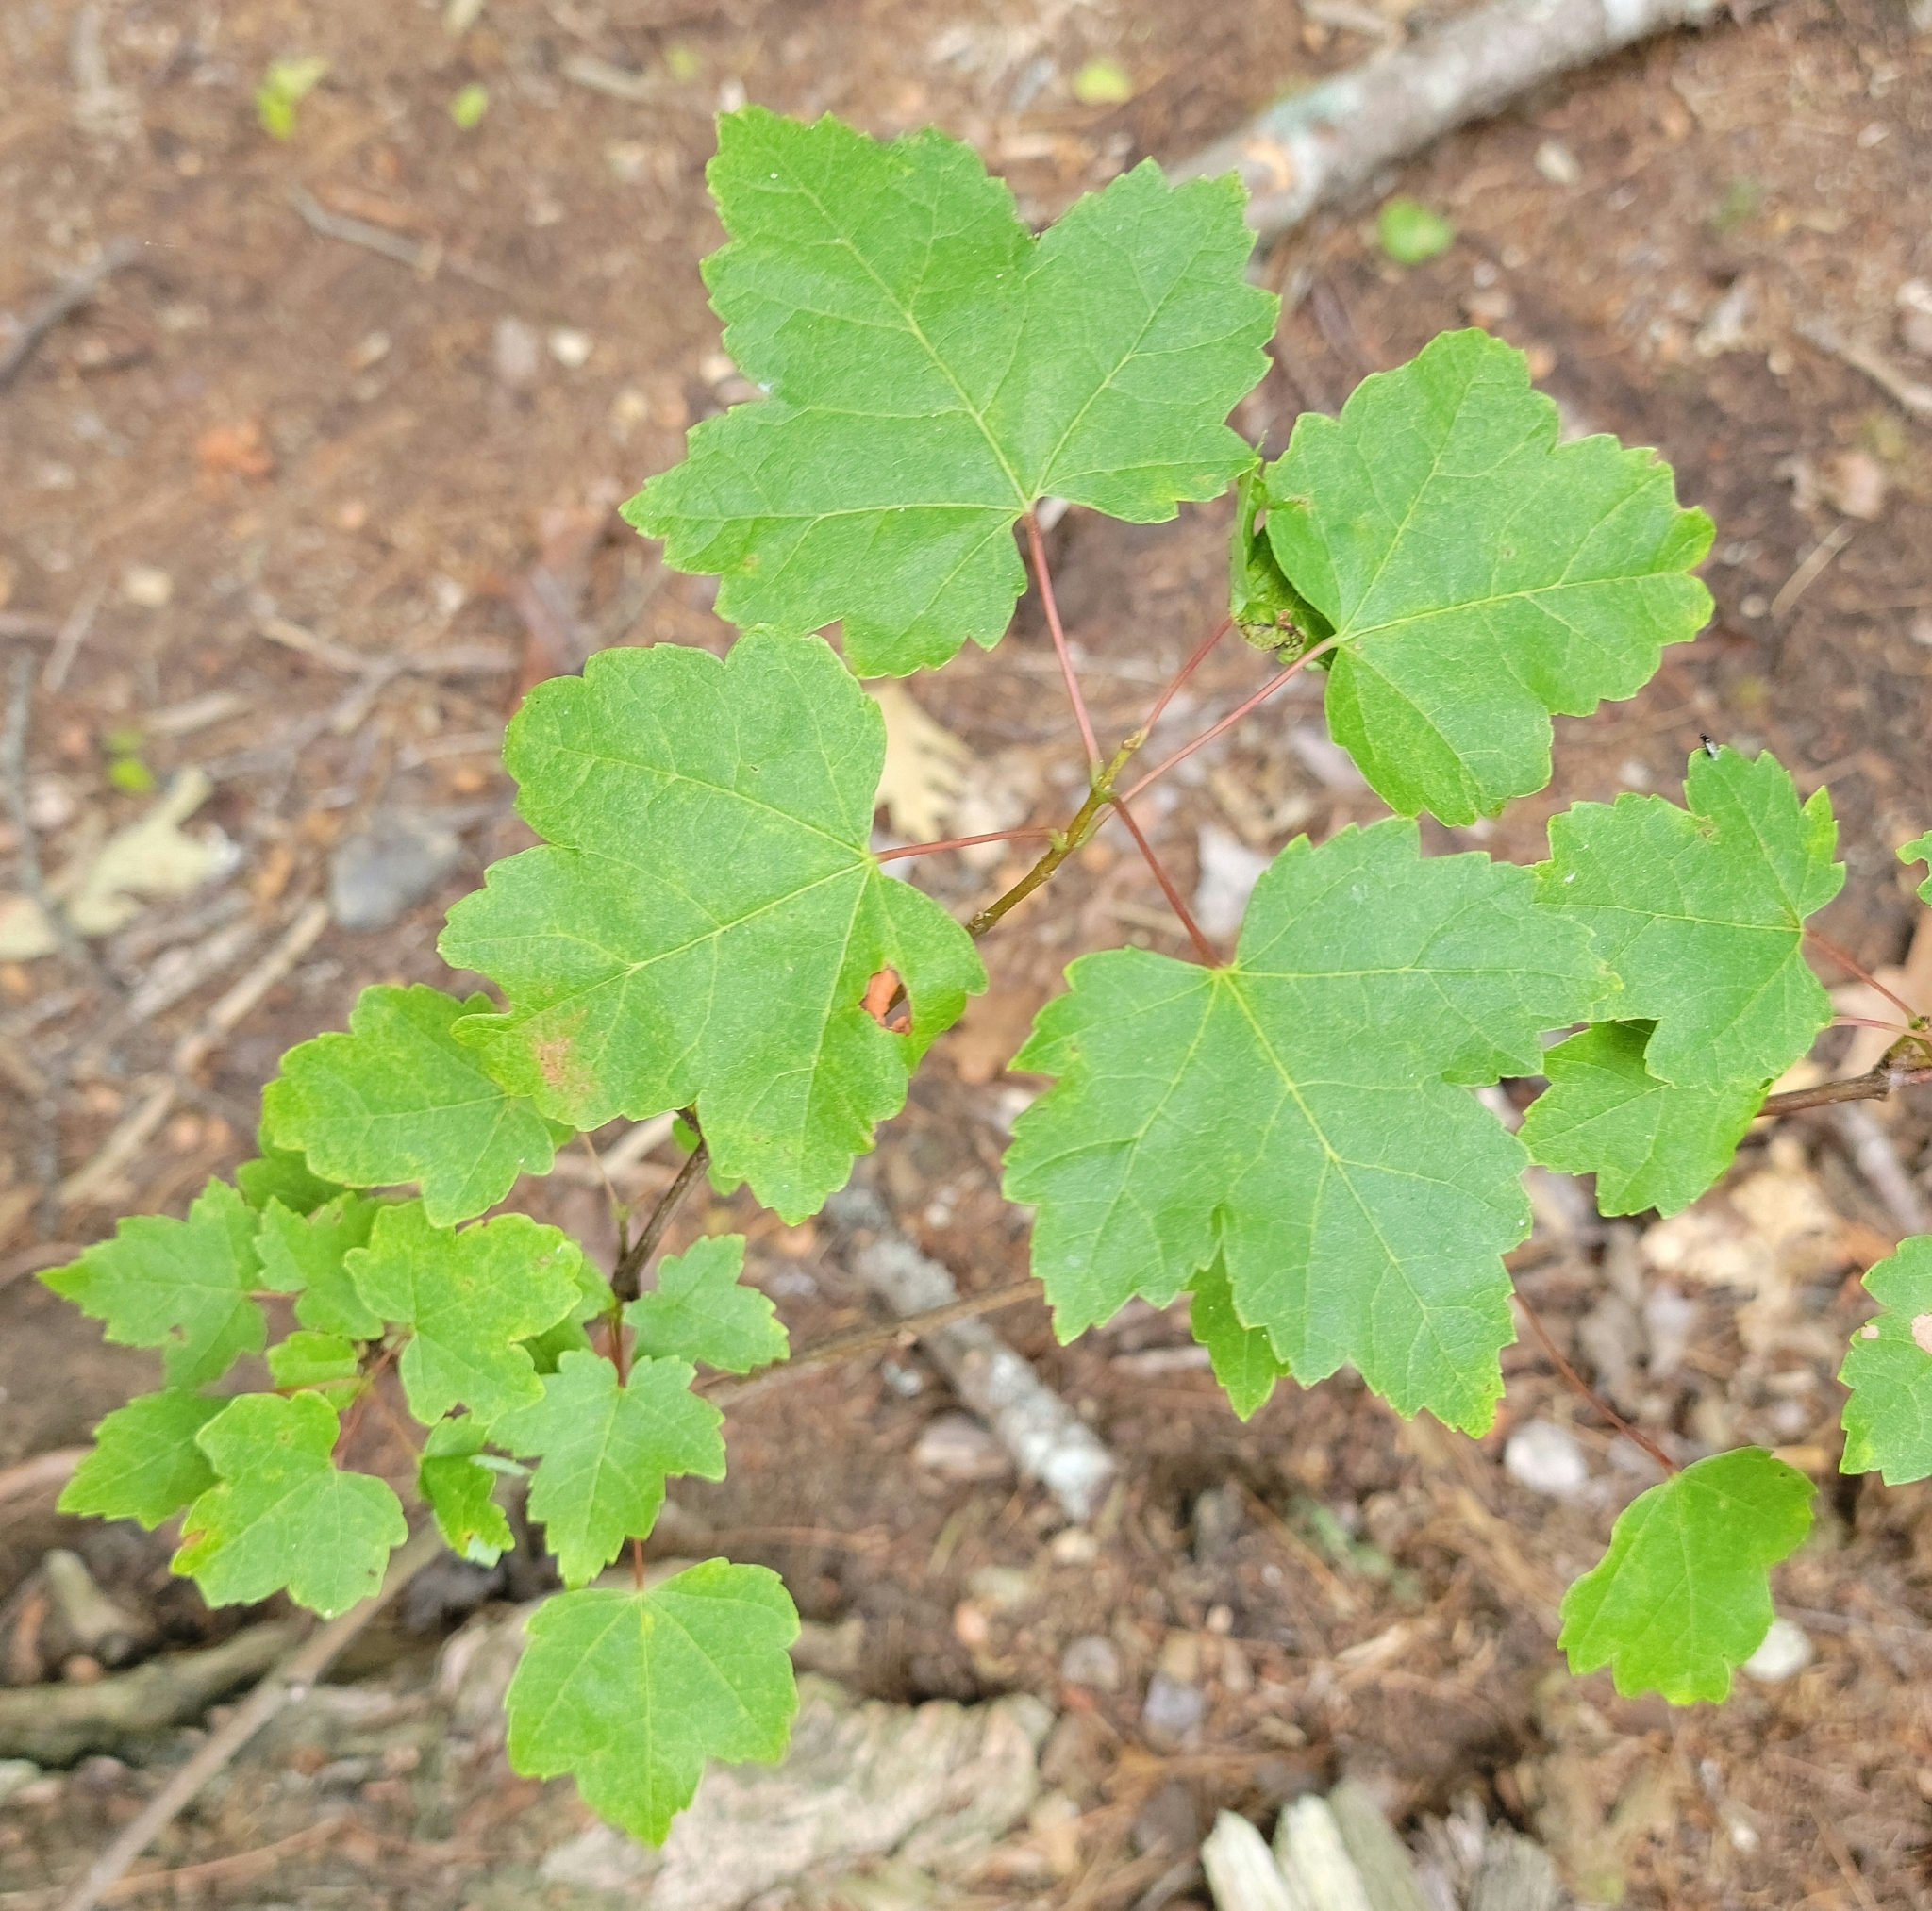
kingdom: Plantae
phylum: Tracheophyta
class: Magnoliopsida
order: Sapindales
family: Sapindaceae
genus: Acer
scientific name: Acer rubrum
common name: Red maple
